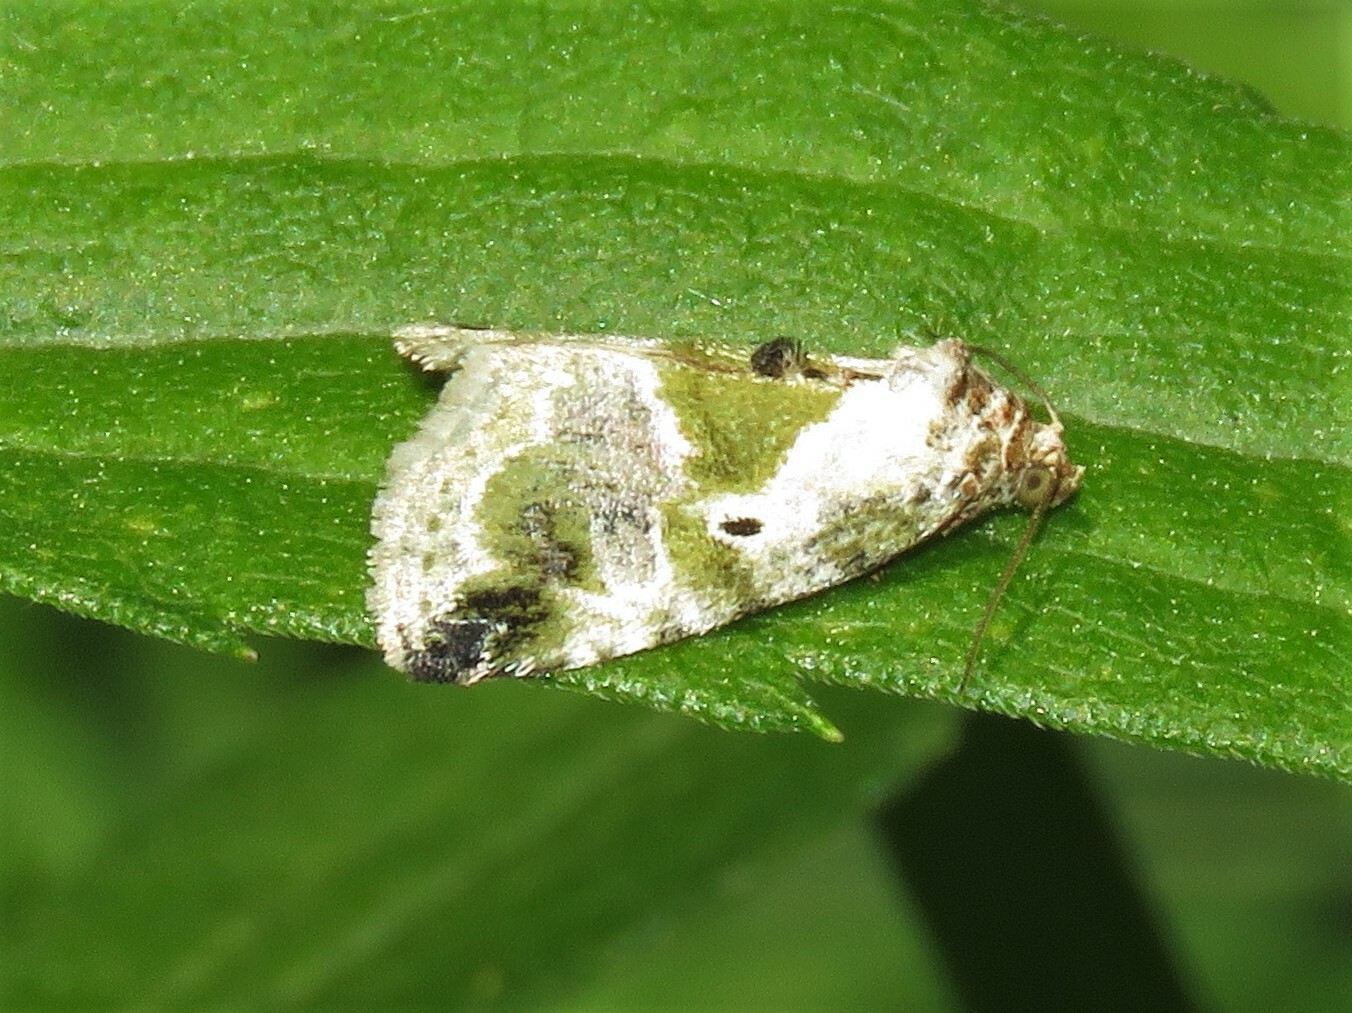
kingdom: Animalia
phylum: Arthropoda
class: Insecta
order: Lepidoptera
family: Noctuidae
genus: Maliattha
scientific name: Maliattha synochitis
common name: Black-dotted glyph
